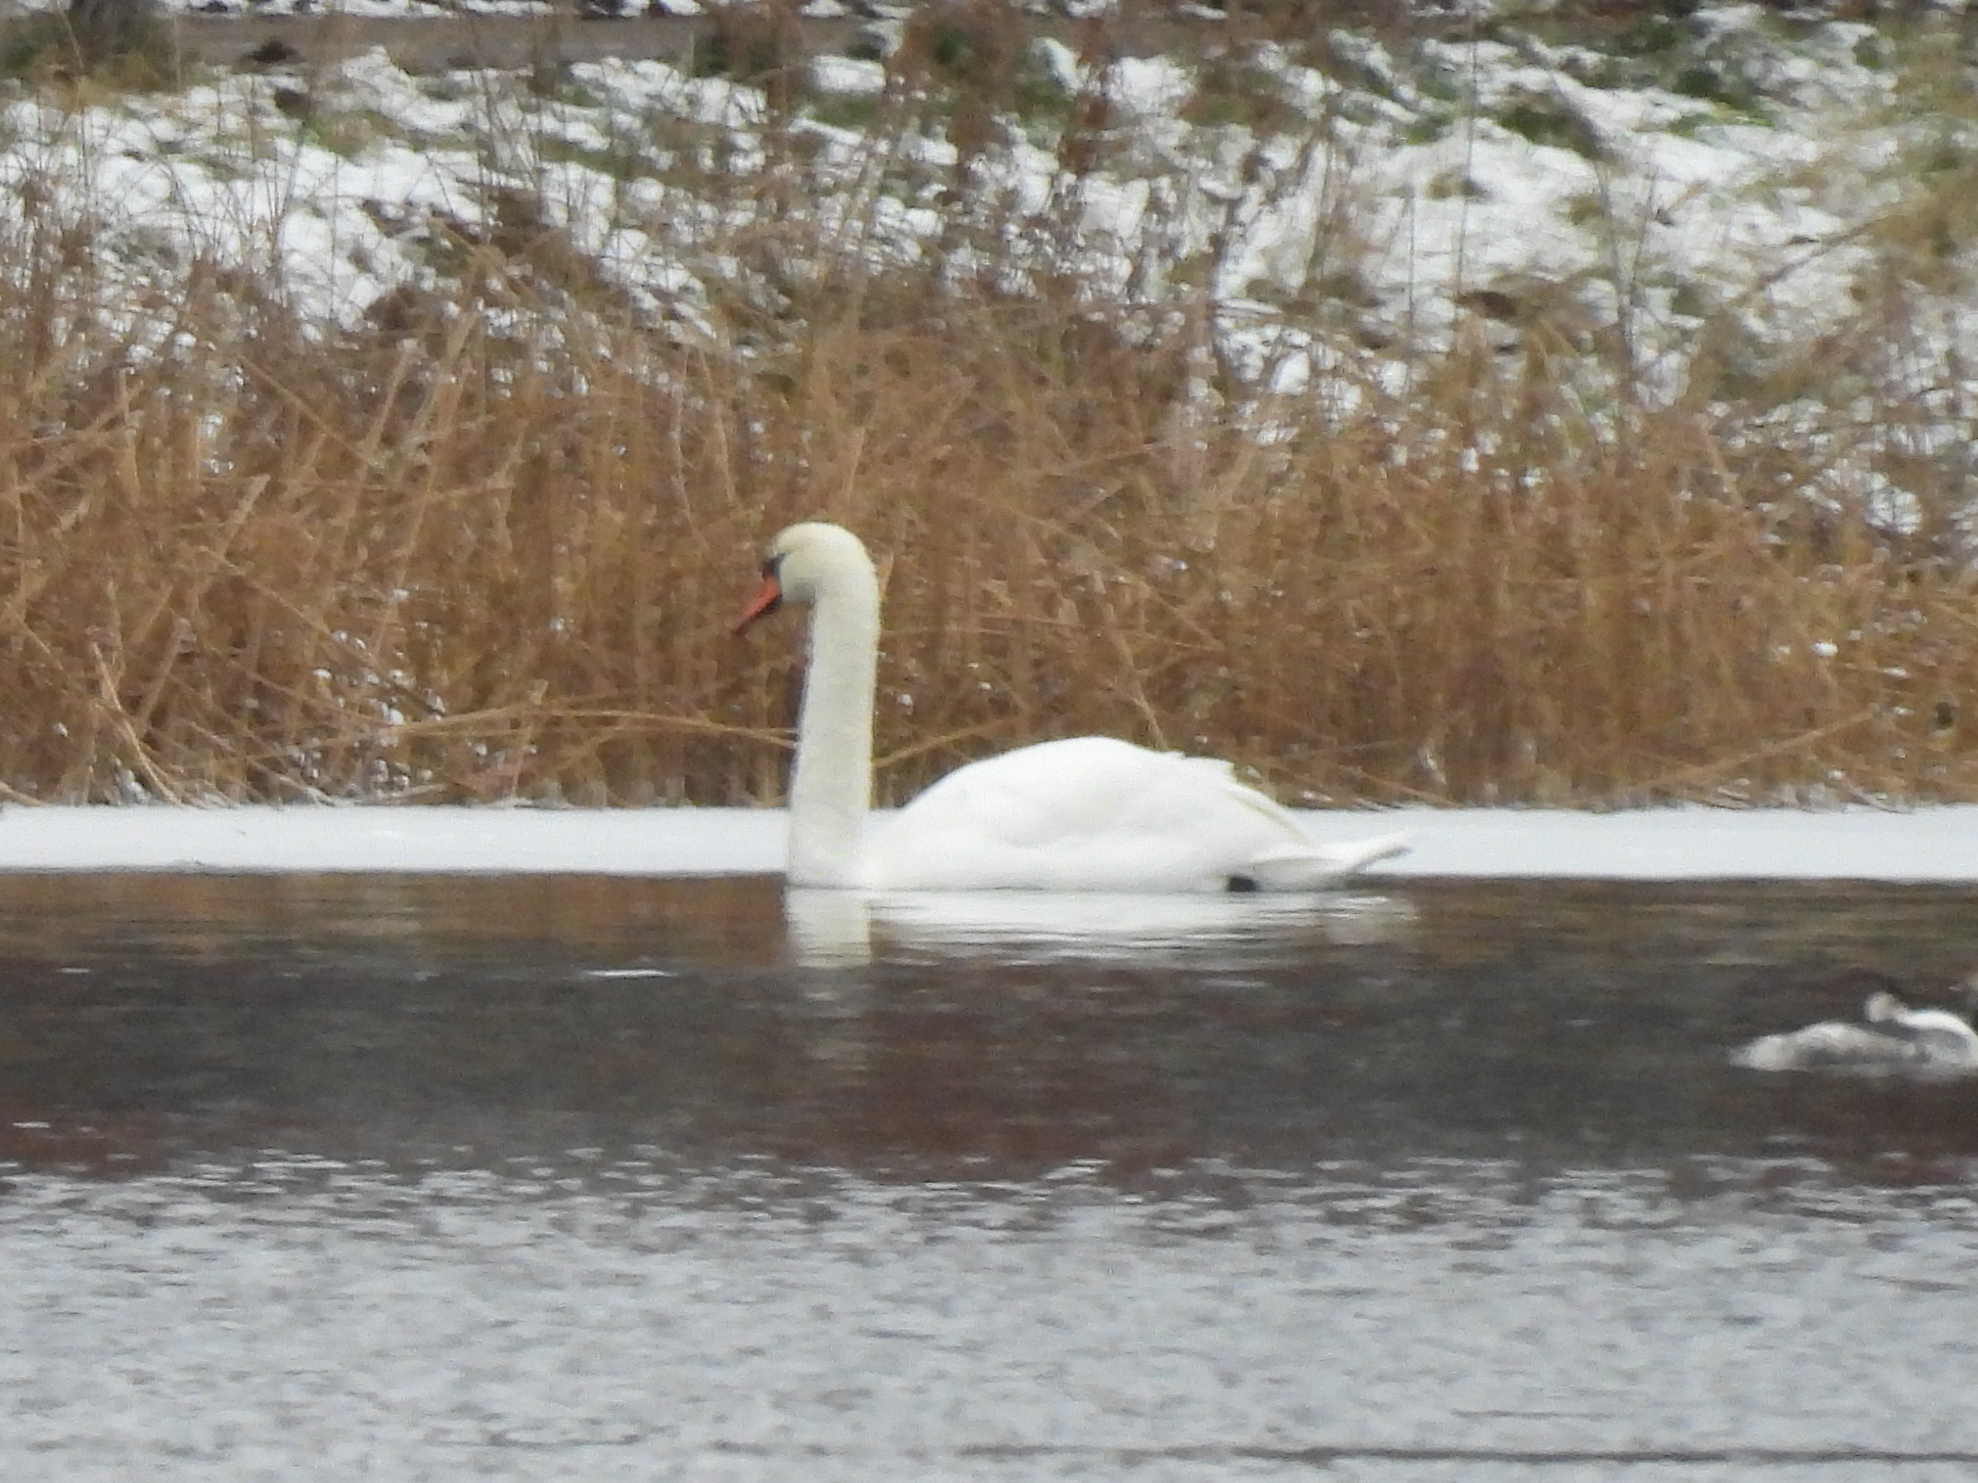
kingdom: Animalia
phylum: Chordata
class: Aves
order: Anseriformes
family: Anatidae
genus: Cygnus
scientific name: Cygnus olor
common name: Mute swan
